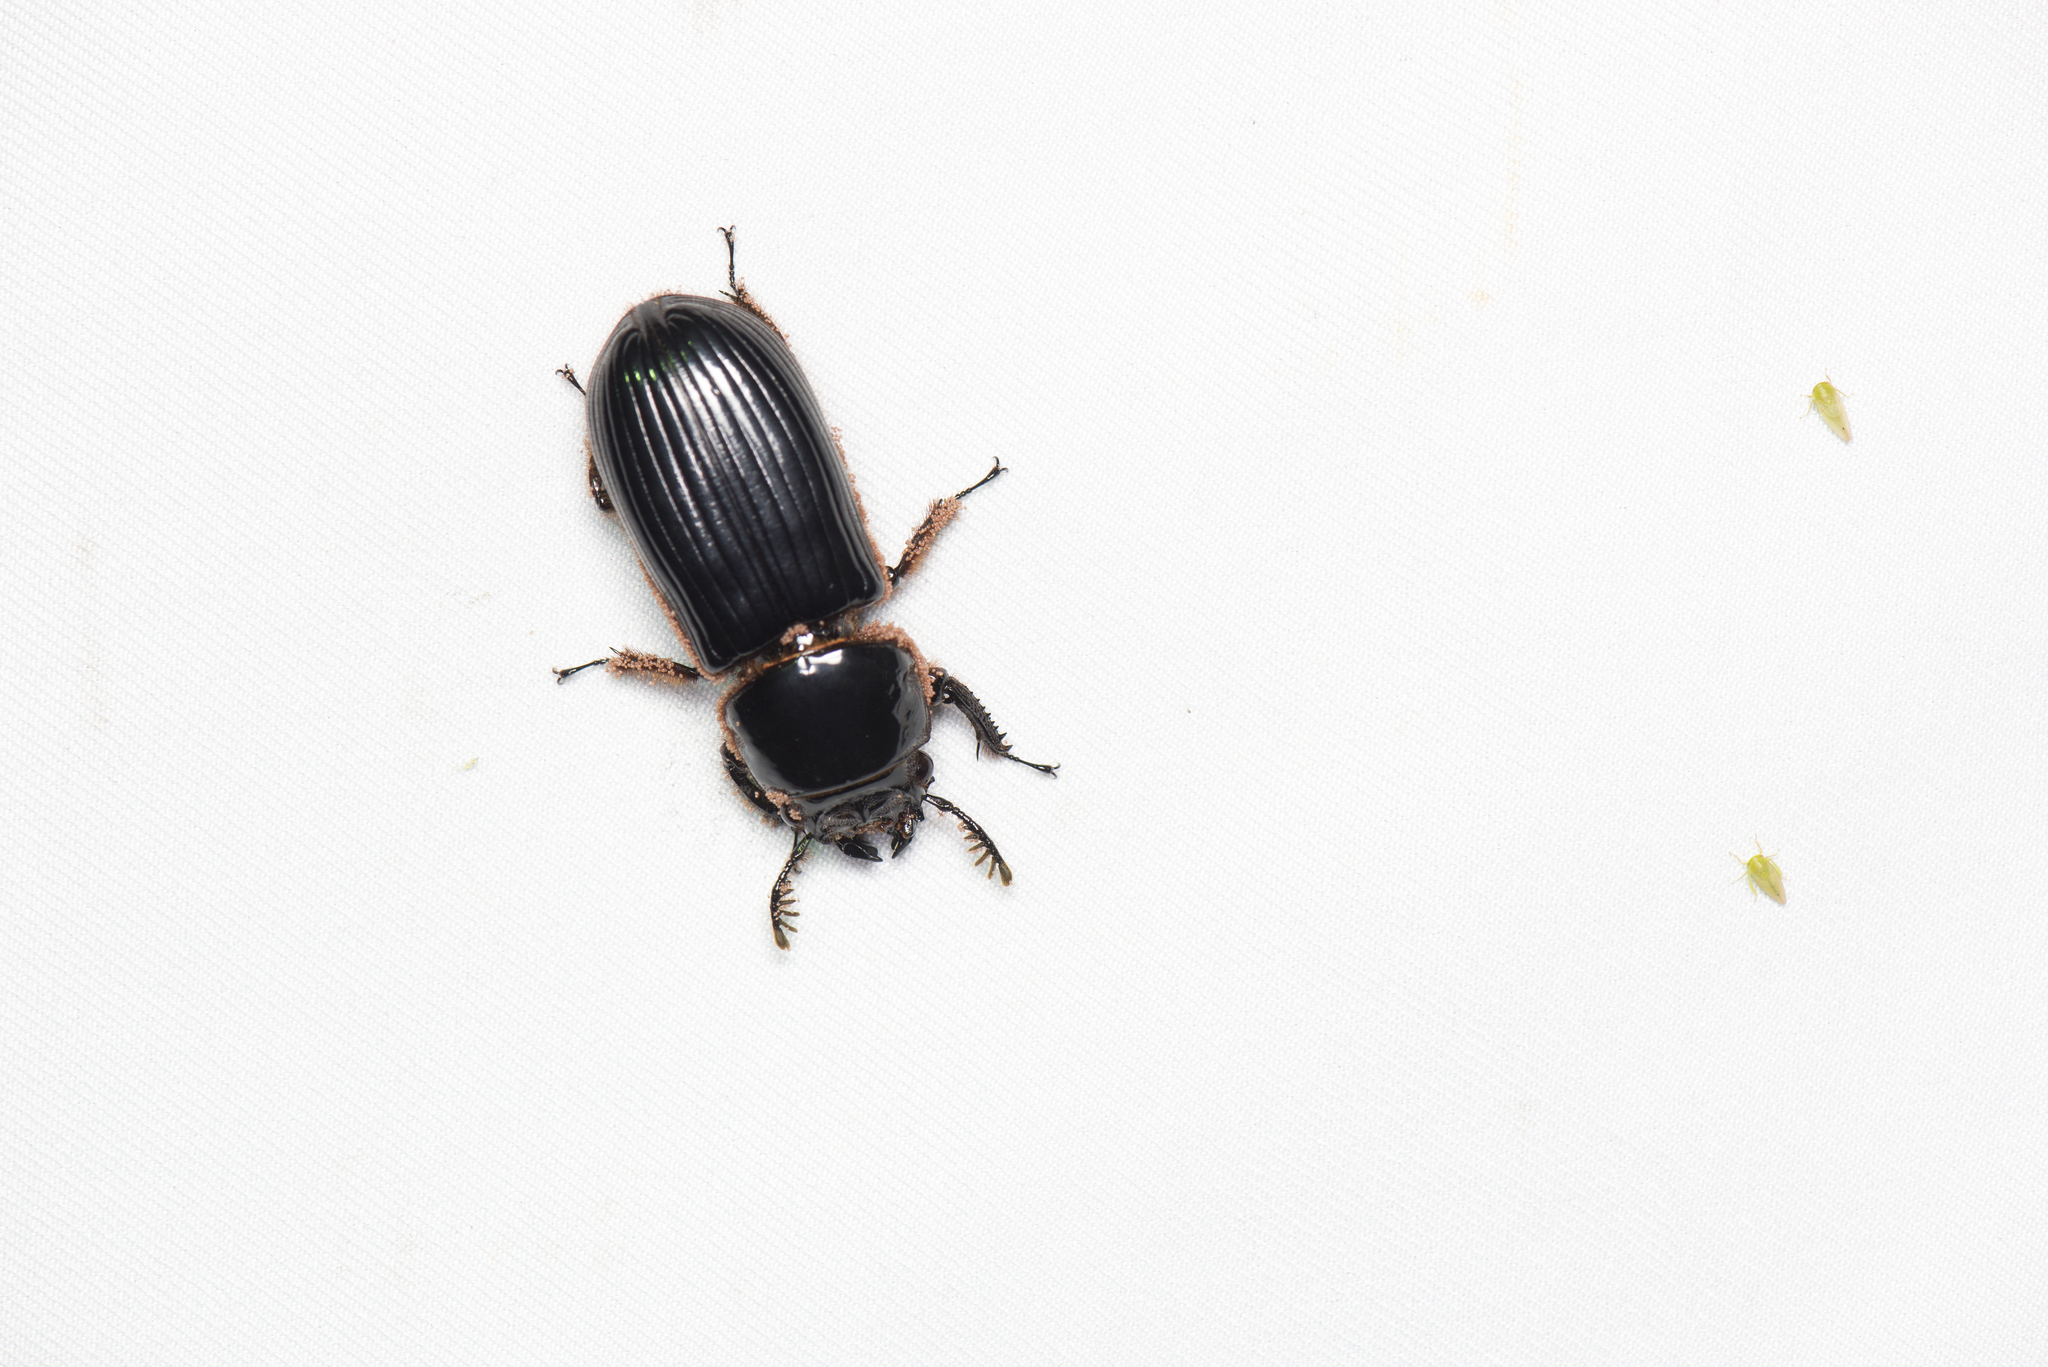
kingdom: Animalia
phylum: Arthropoda
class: Insecta
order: Coleoptera
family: Passalidae
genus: Aceraius
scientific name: Aceraius grandis
